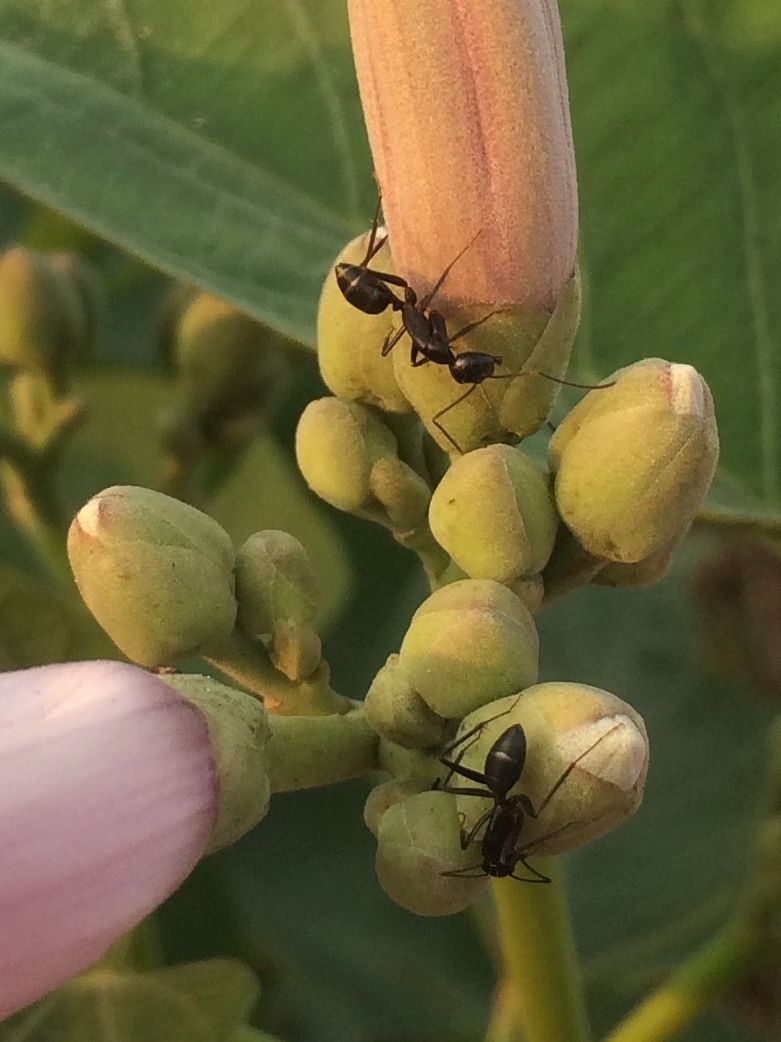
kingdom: Animalia
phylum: Arthropoda
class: Insecta
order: Hymenoptera
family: Formicidae
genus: Camponotus
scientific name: Camponotus compressus
